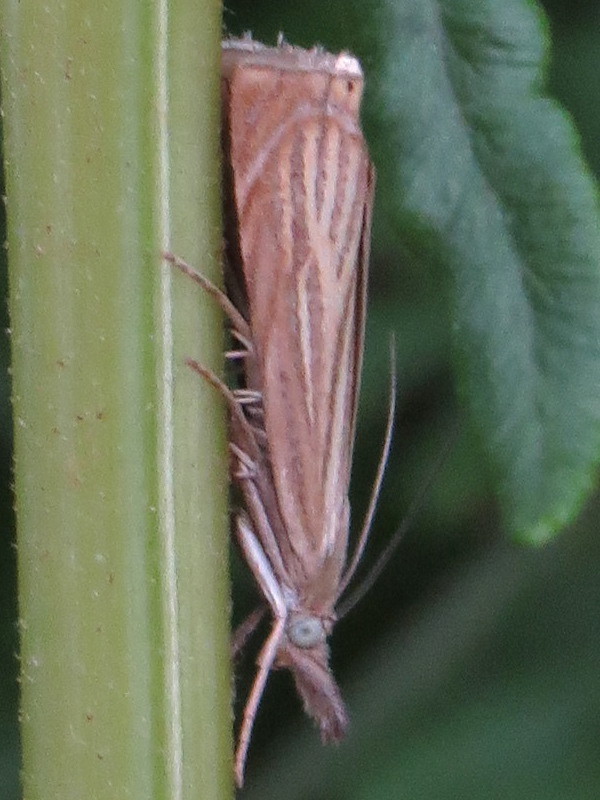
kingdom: Animalia
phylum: Arthropoda
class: Insecta
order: Lepidoptera
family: Crambidae
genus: Chrysoteuchia
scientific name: Chrysoteuchia culmella
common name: Garden grass-veneer
